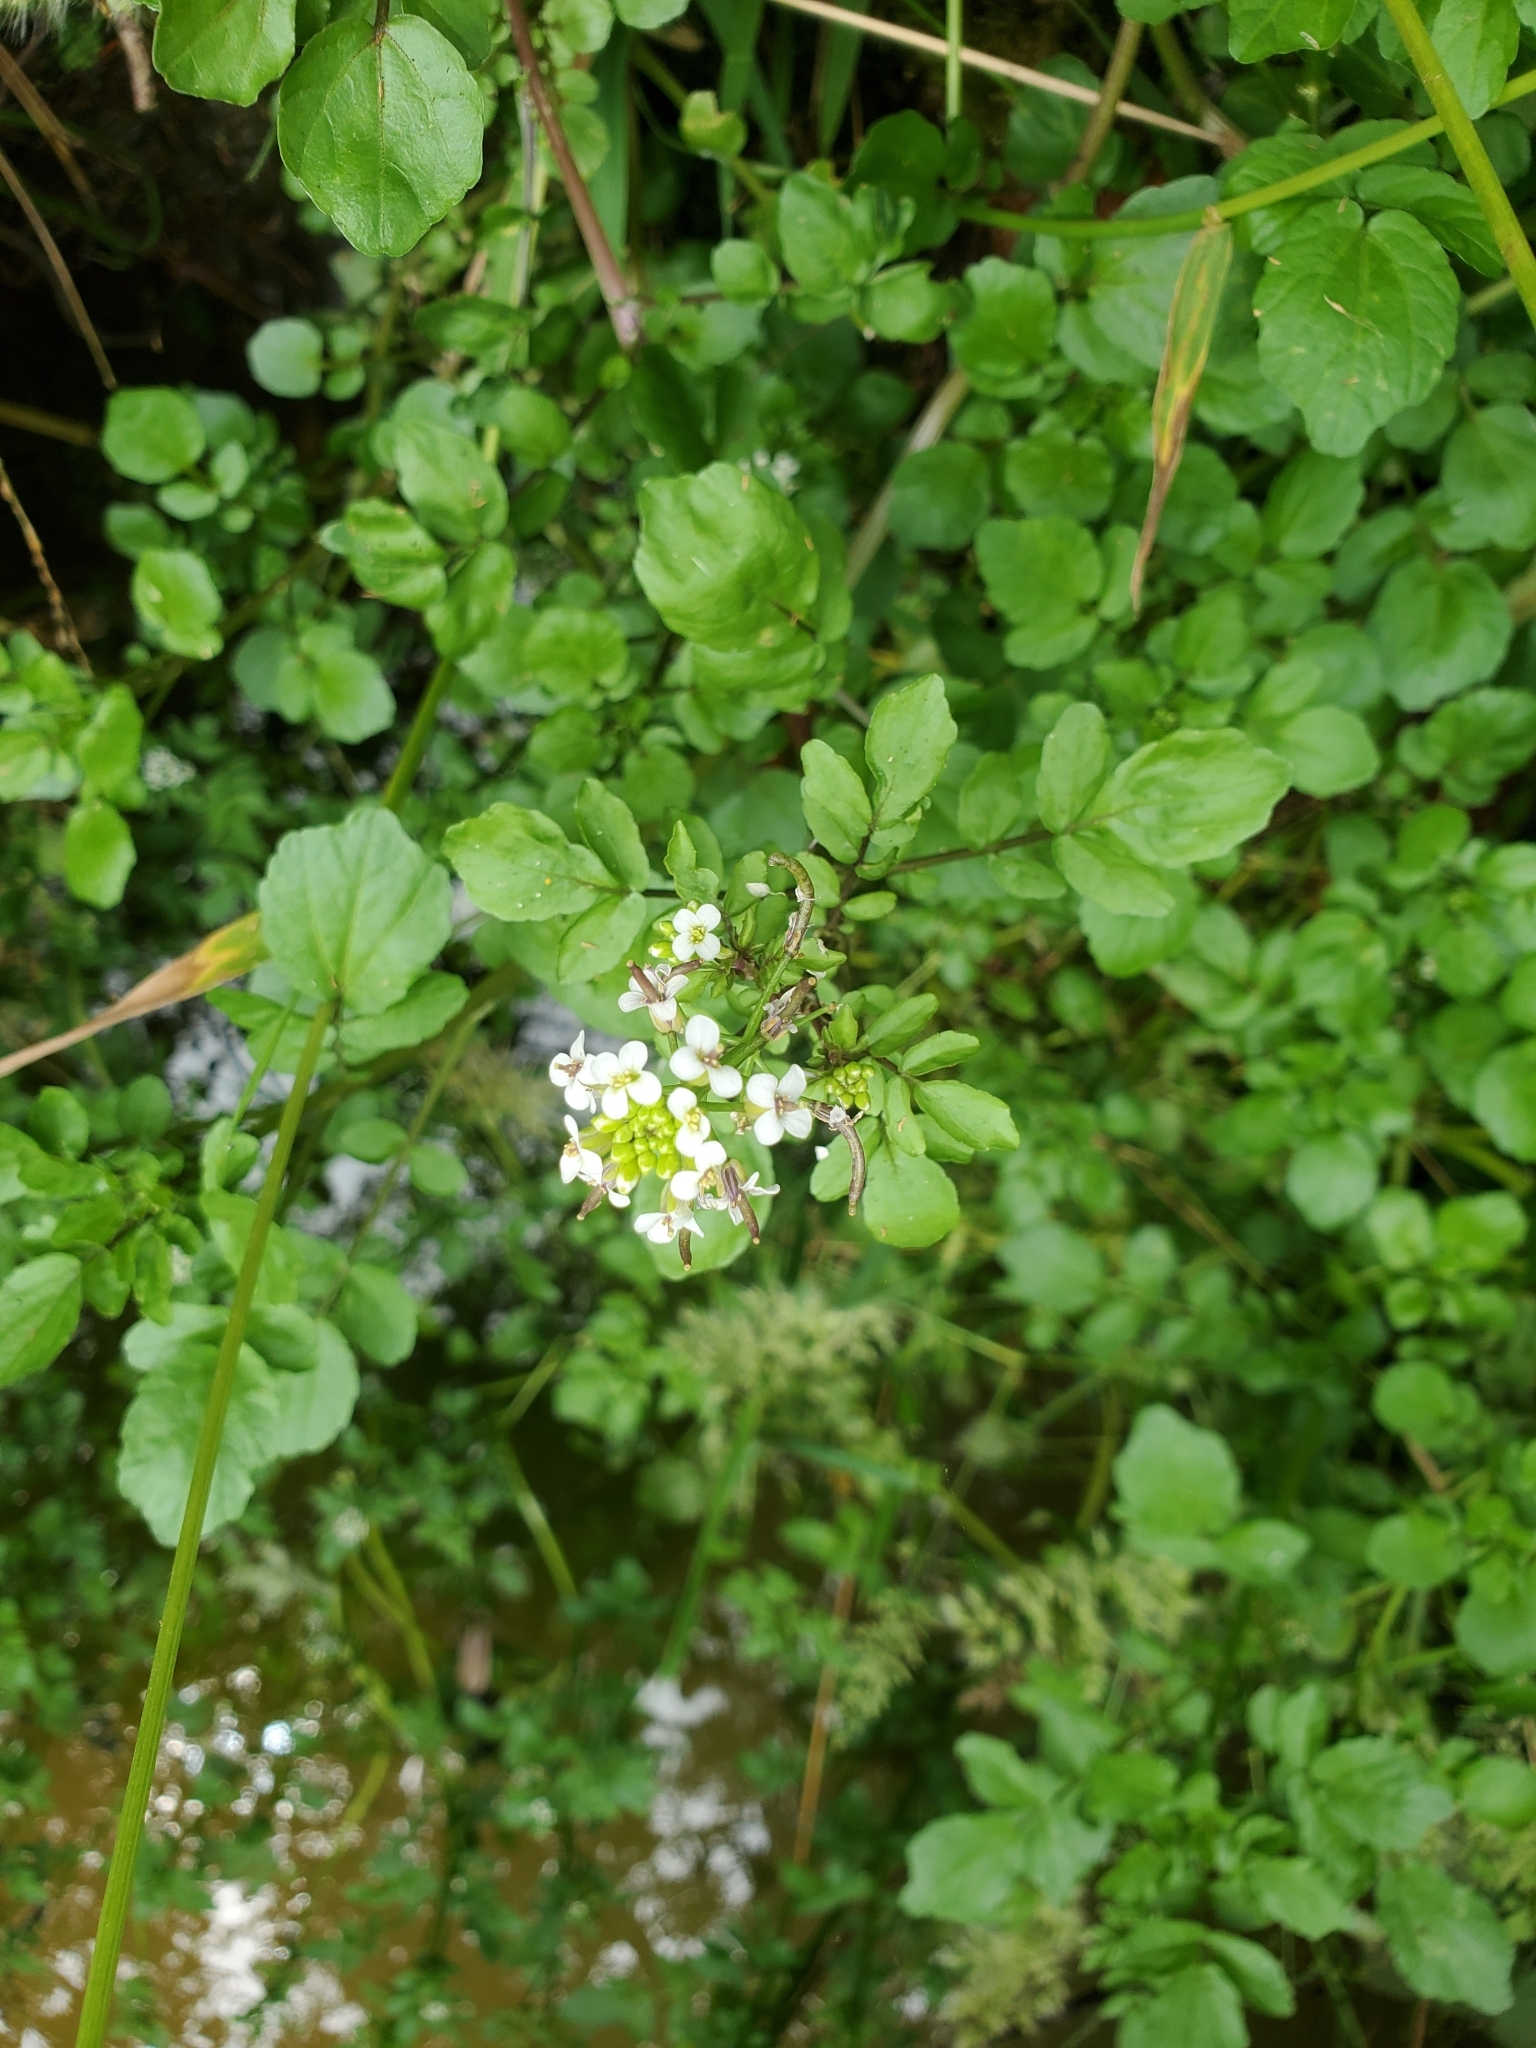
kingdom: Plantae
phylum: Tracheophyta
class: Magnoliopsida
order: Brassicales
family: Brassicaceae
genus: Nasturtium
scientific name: Nasturtium officinale
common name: Watercress
